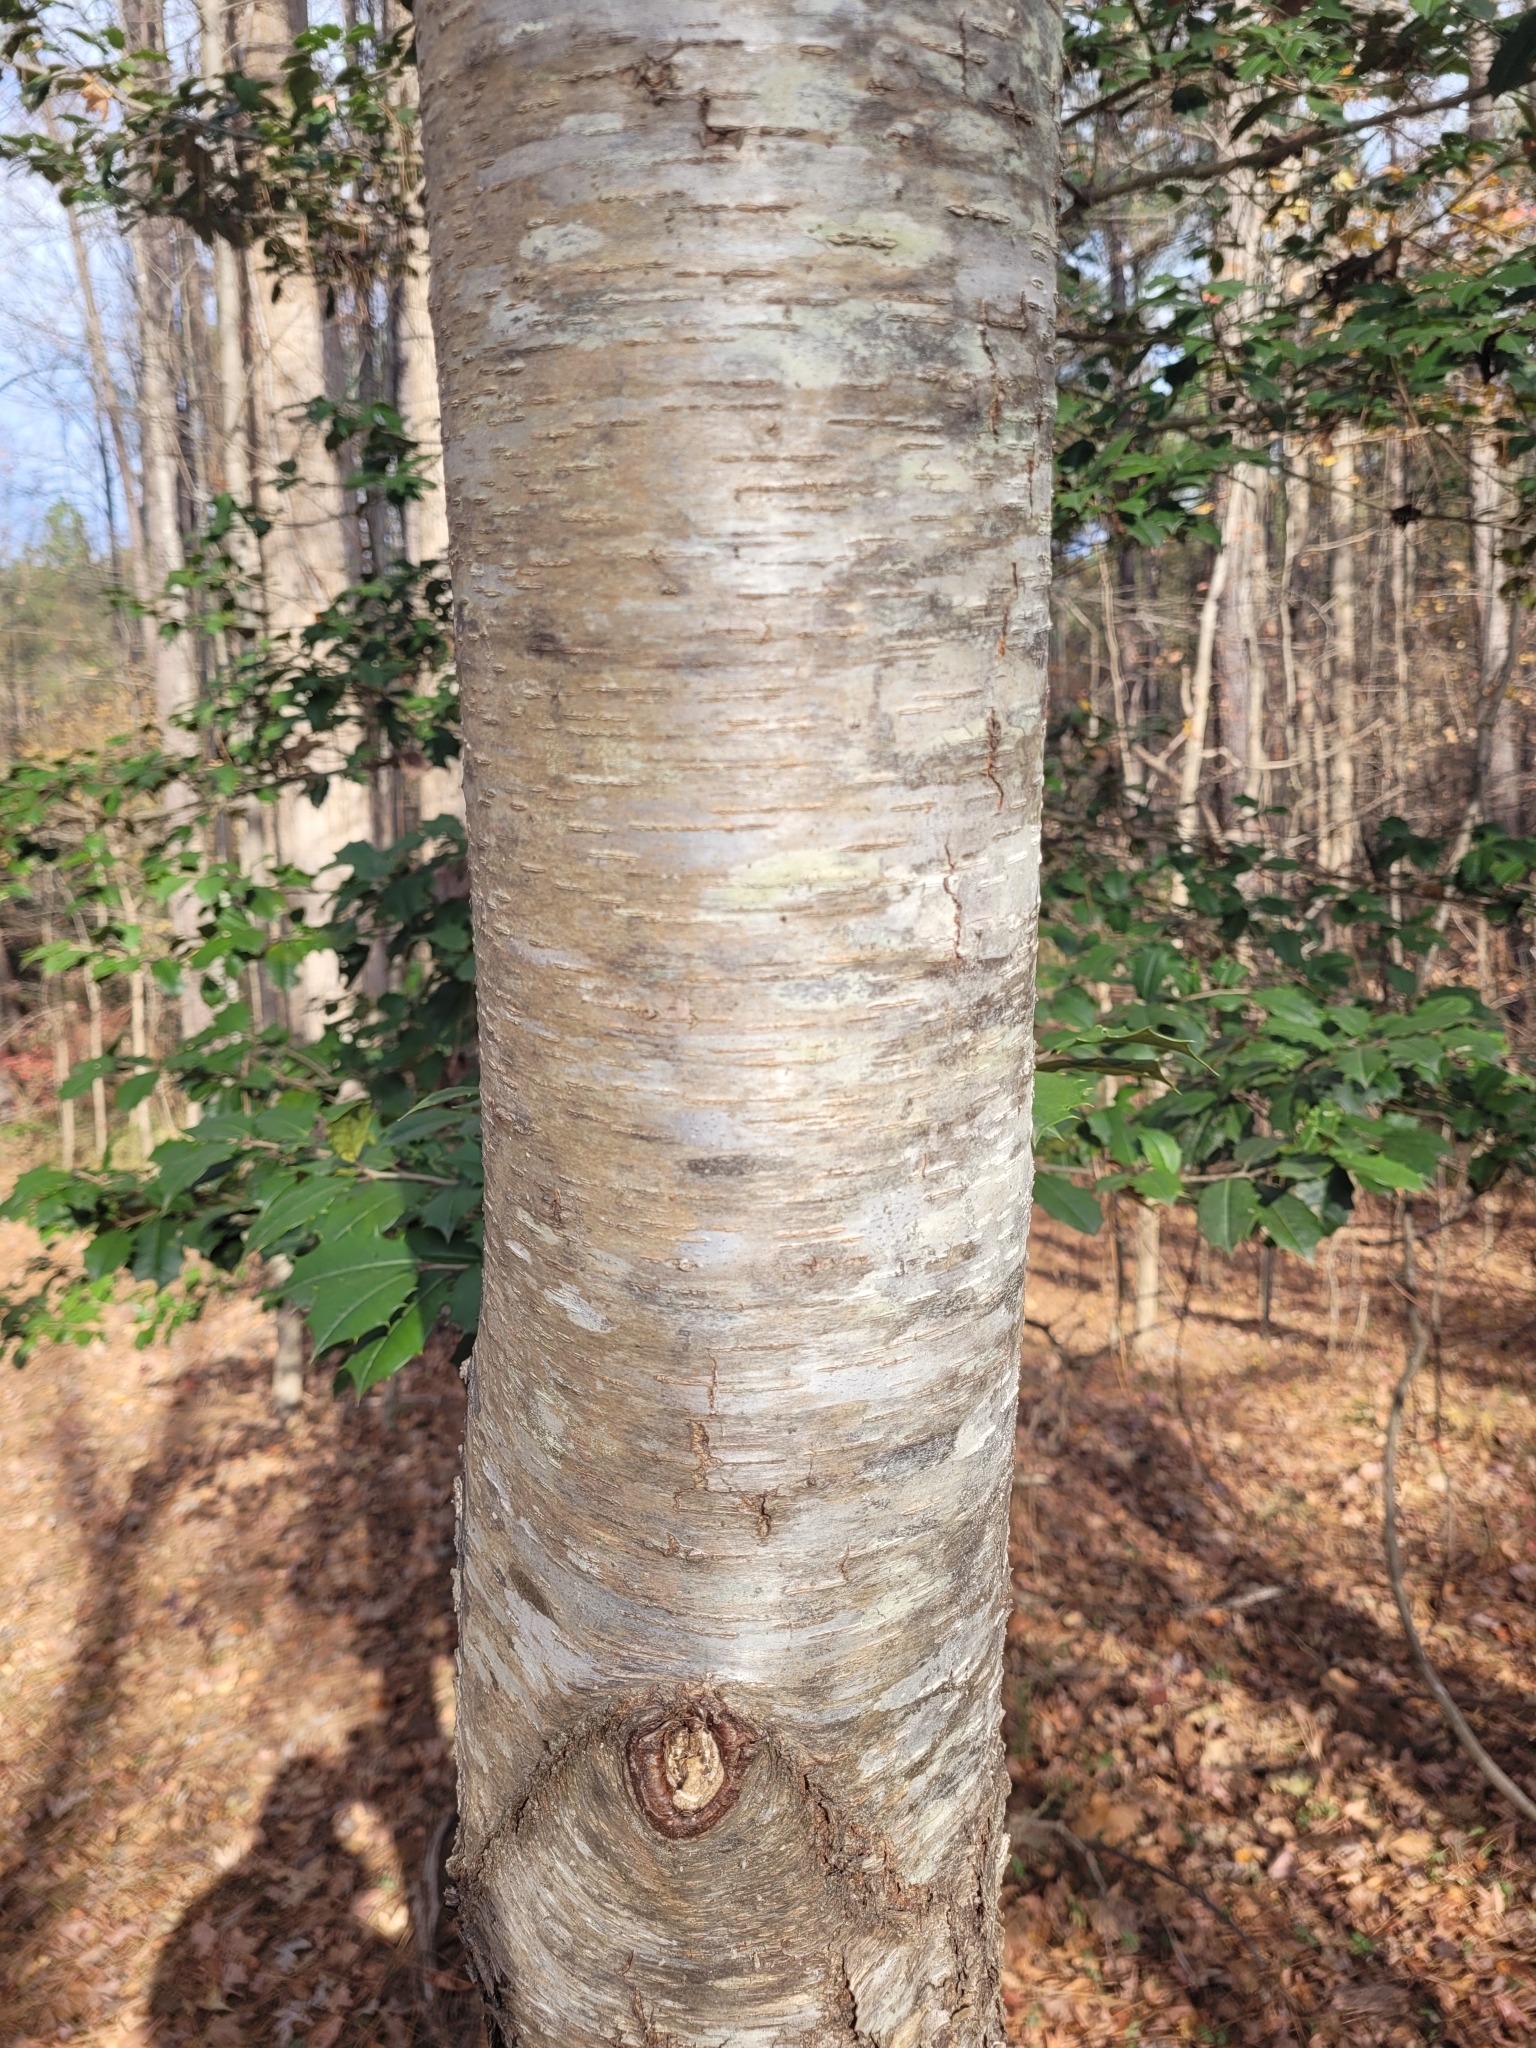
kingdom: Plantae
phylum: Tracheophyta
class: Magnoliopsida
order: Rosales
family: Rosaceae
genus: Prunus
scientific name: Prunus serotina
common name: Black cherry
